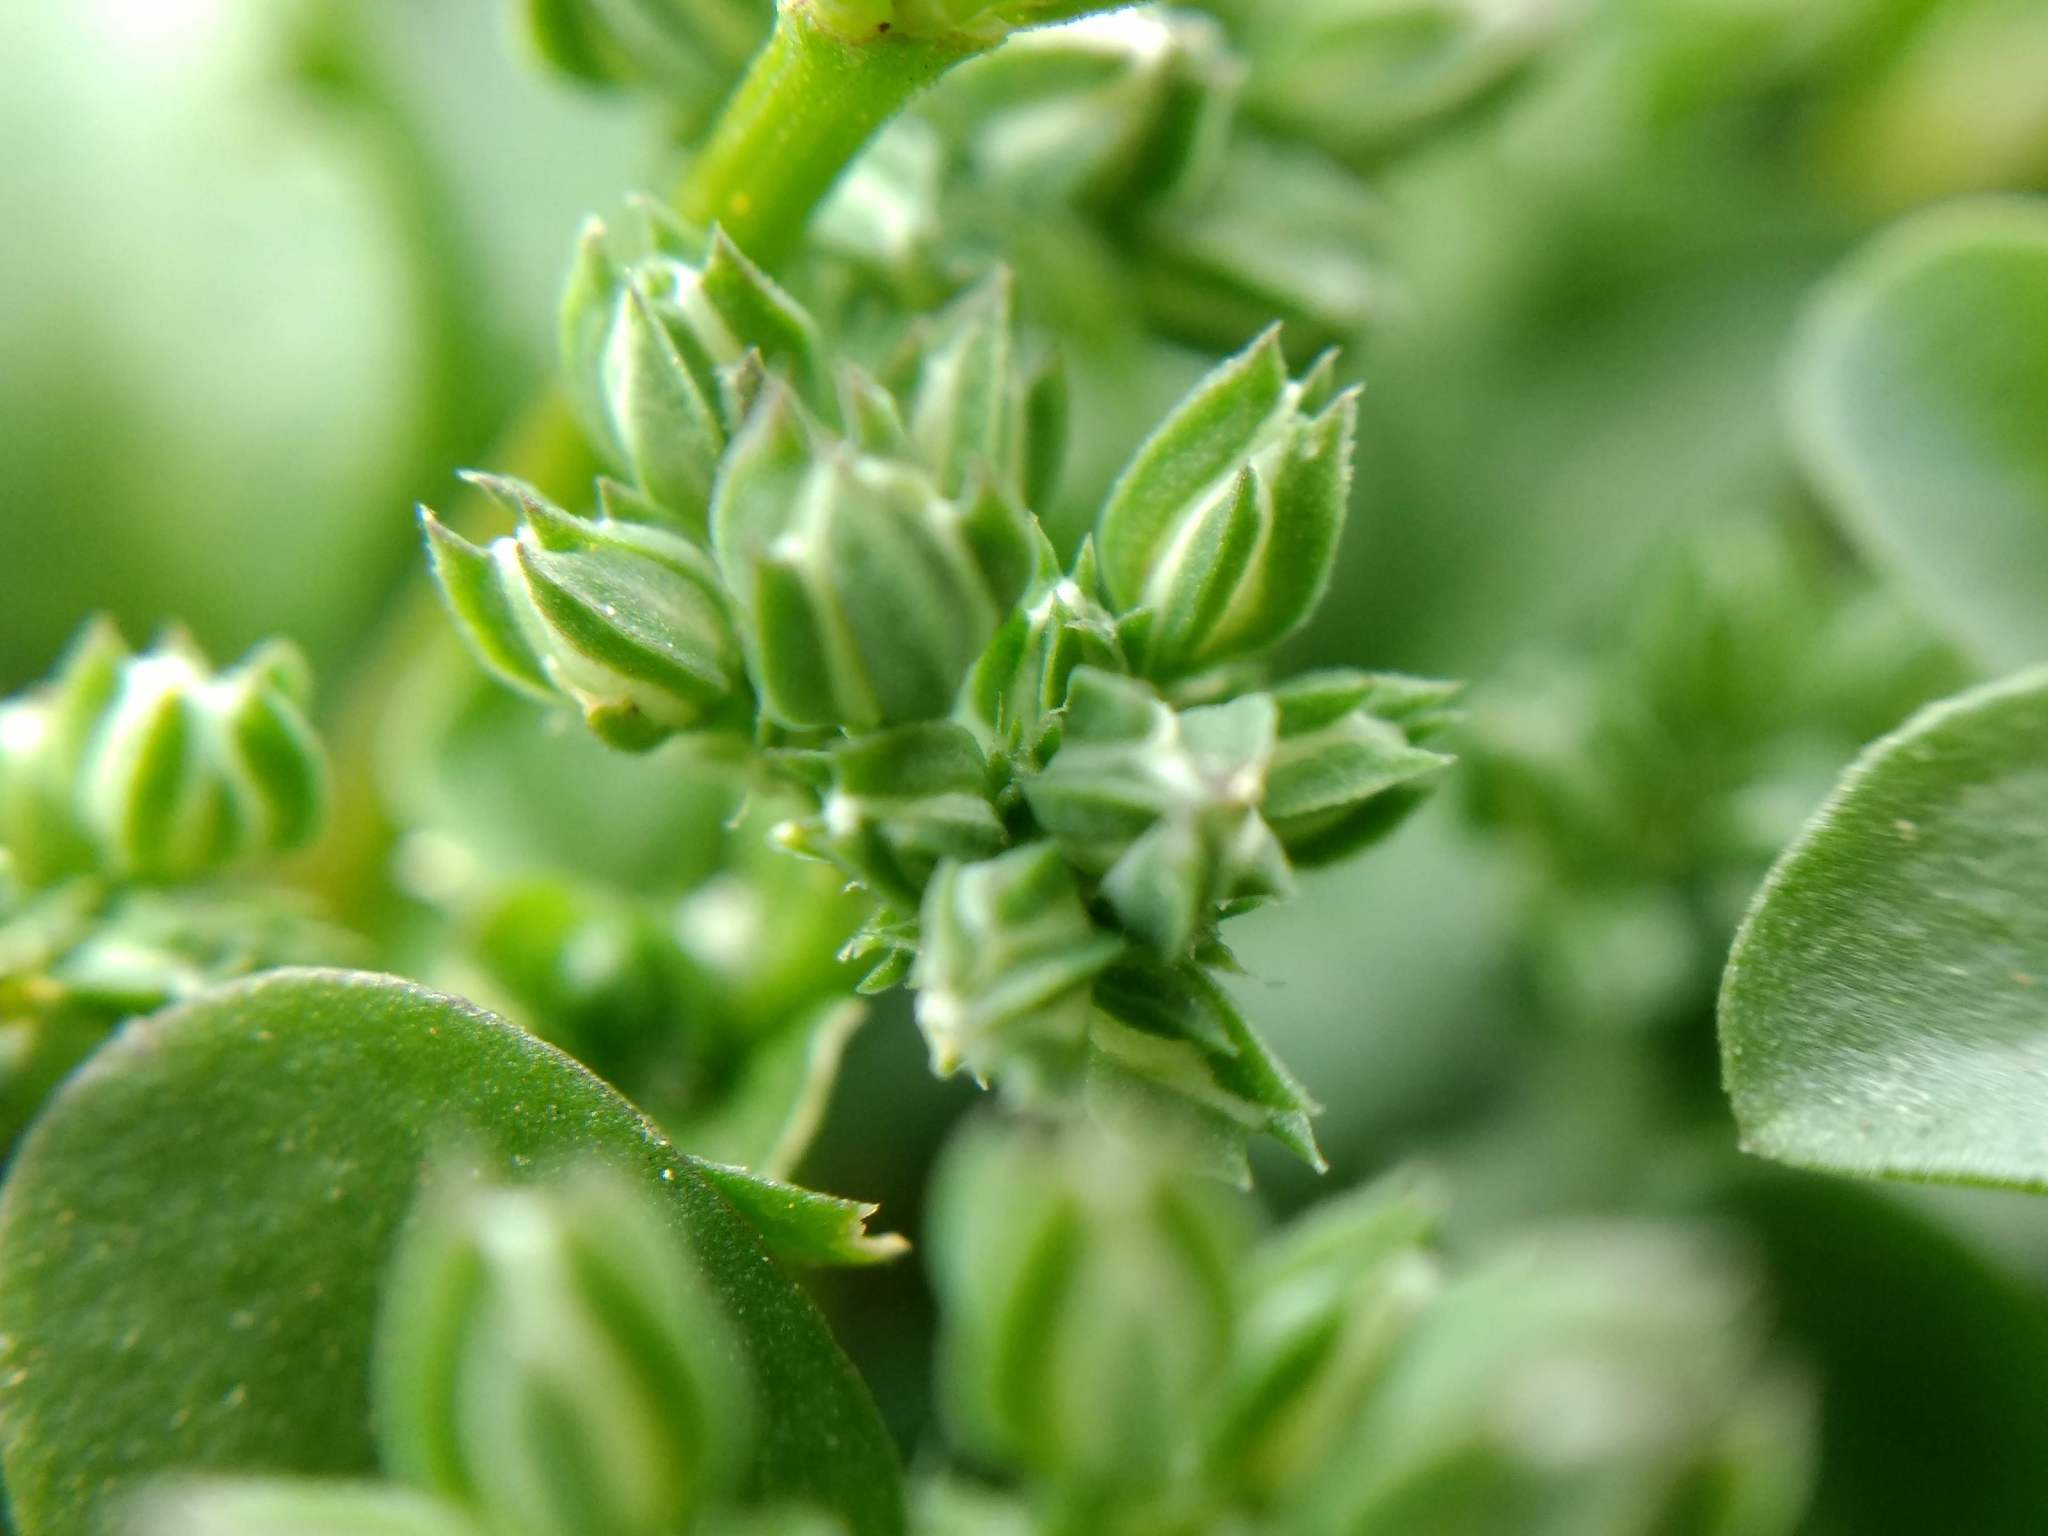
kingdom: Plantae
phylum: Tracheophyta
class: Magnoliopsida
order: Caryophyllales
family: Caryophyllaceae
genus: Polycarpon
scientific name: Polycarpon tetraphyllum
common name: Four-leaved all-seed
